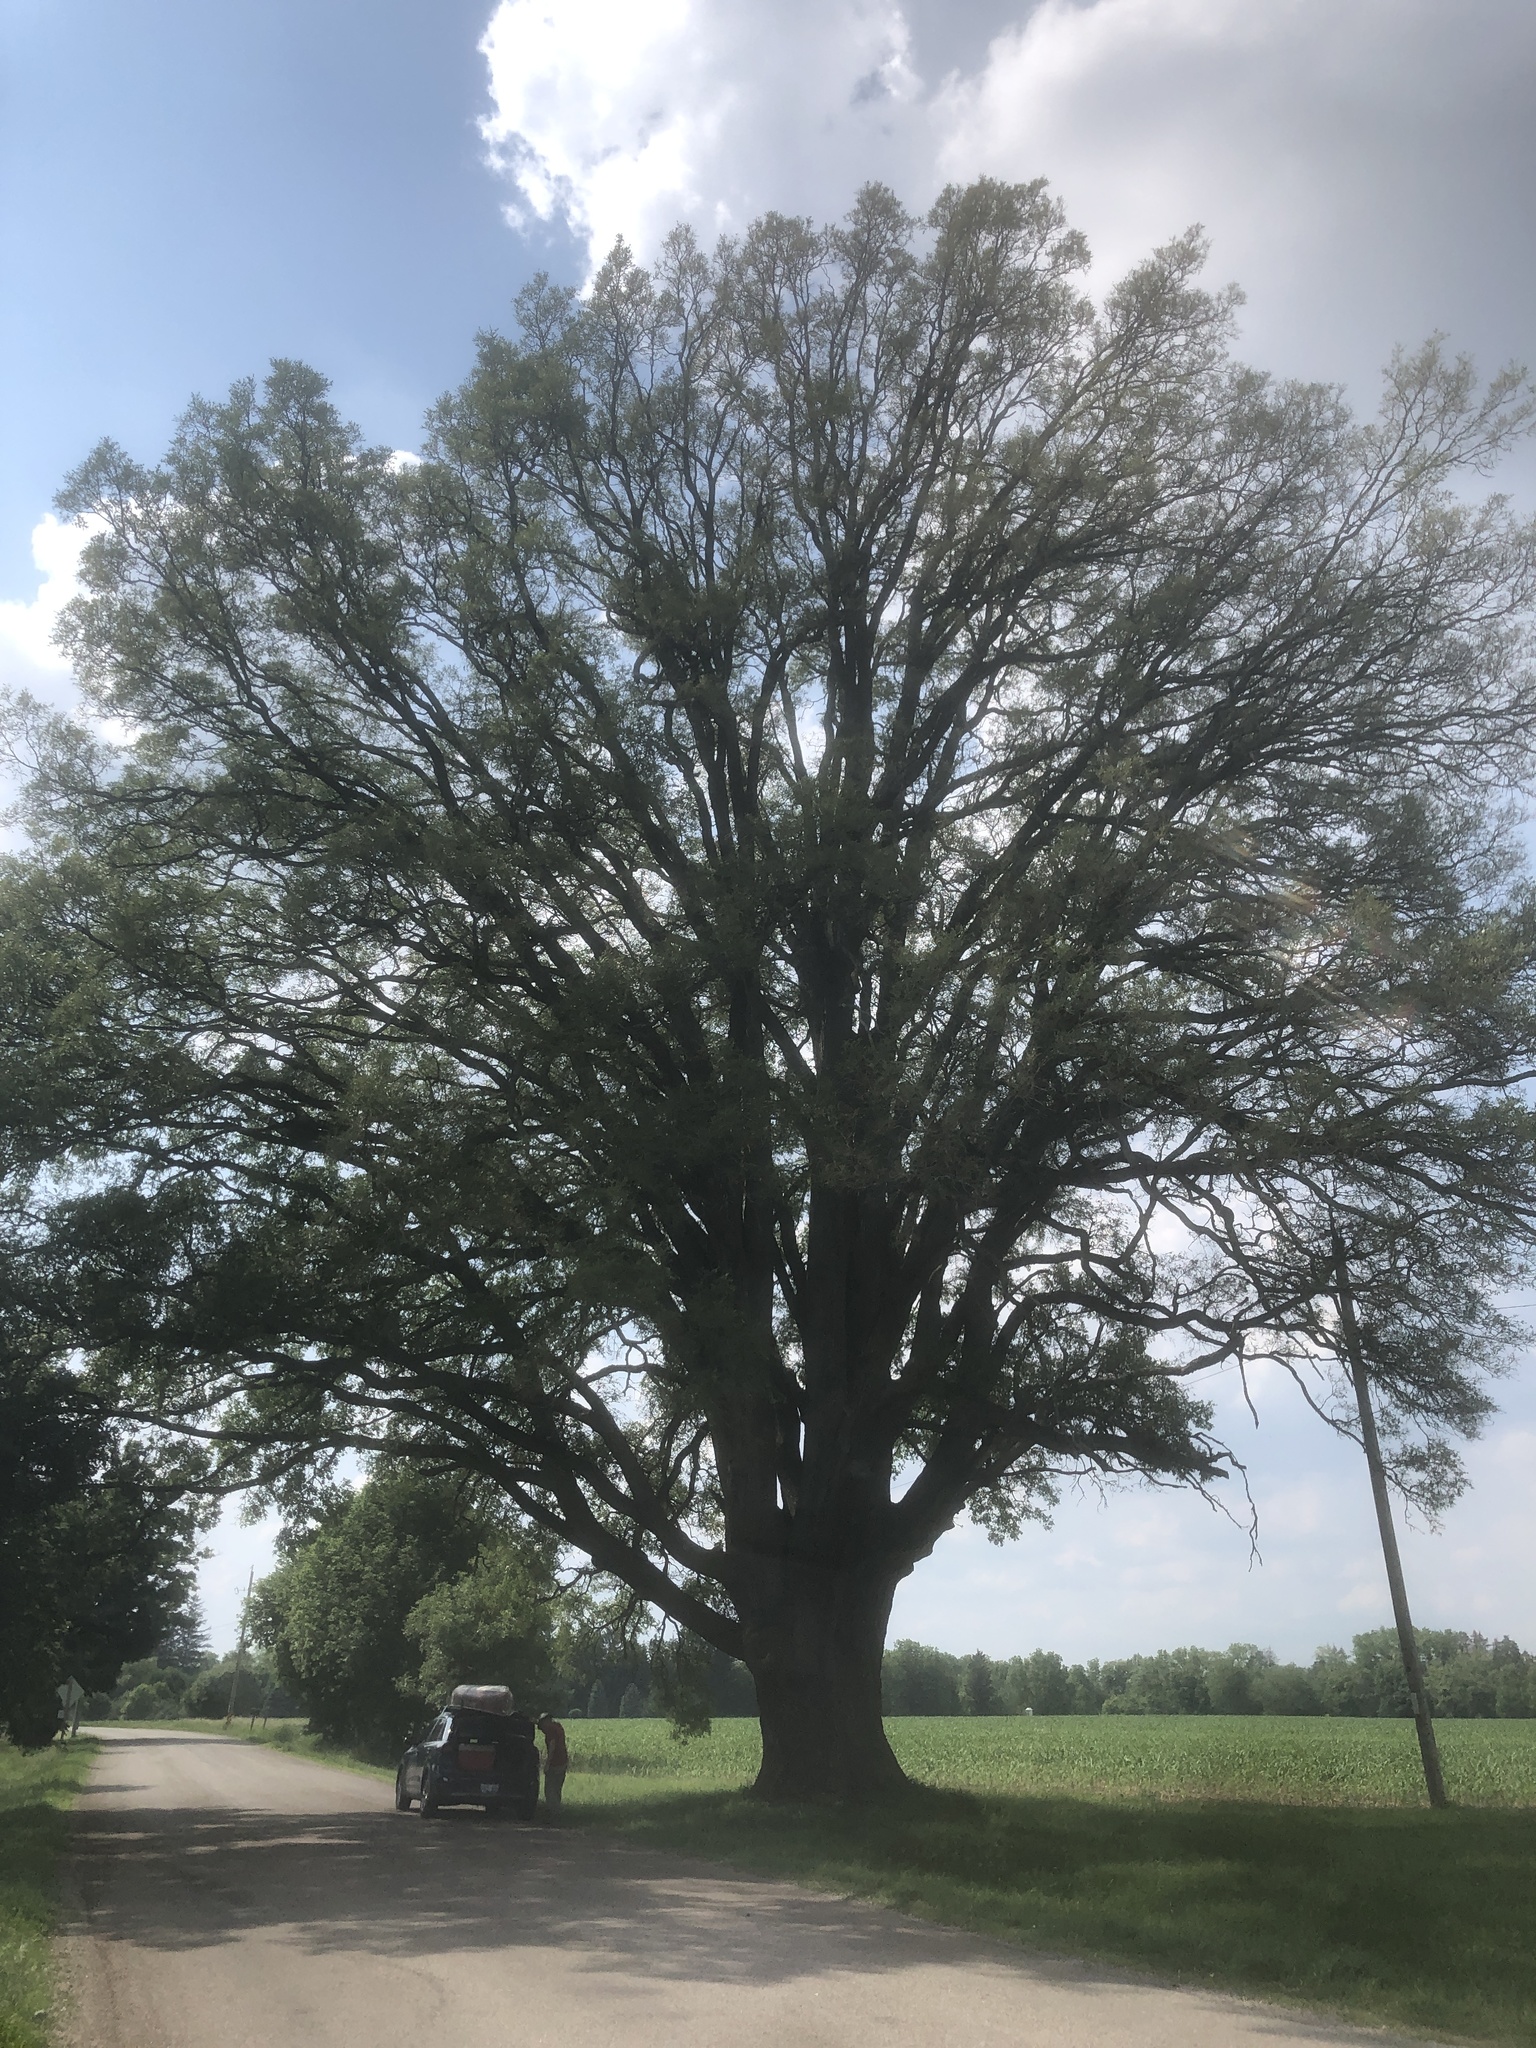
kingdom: Plantae
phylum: Tracheophyta
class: Magnoliopsida
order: Fagales
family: Fagaceae
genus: Quercus
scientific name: Quercus alba
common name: White oak
